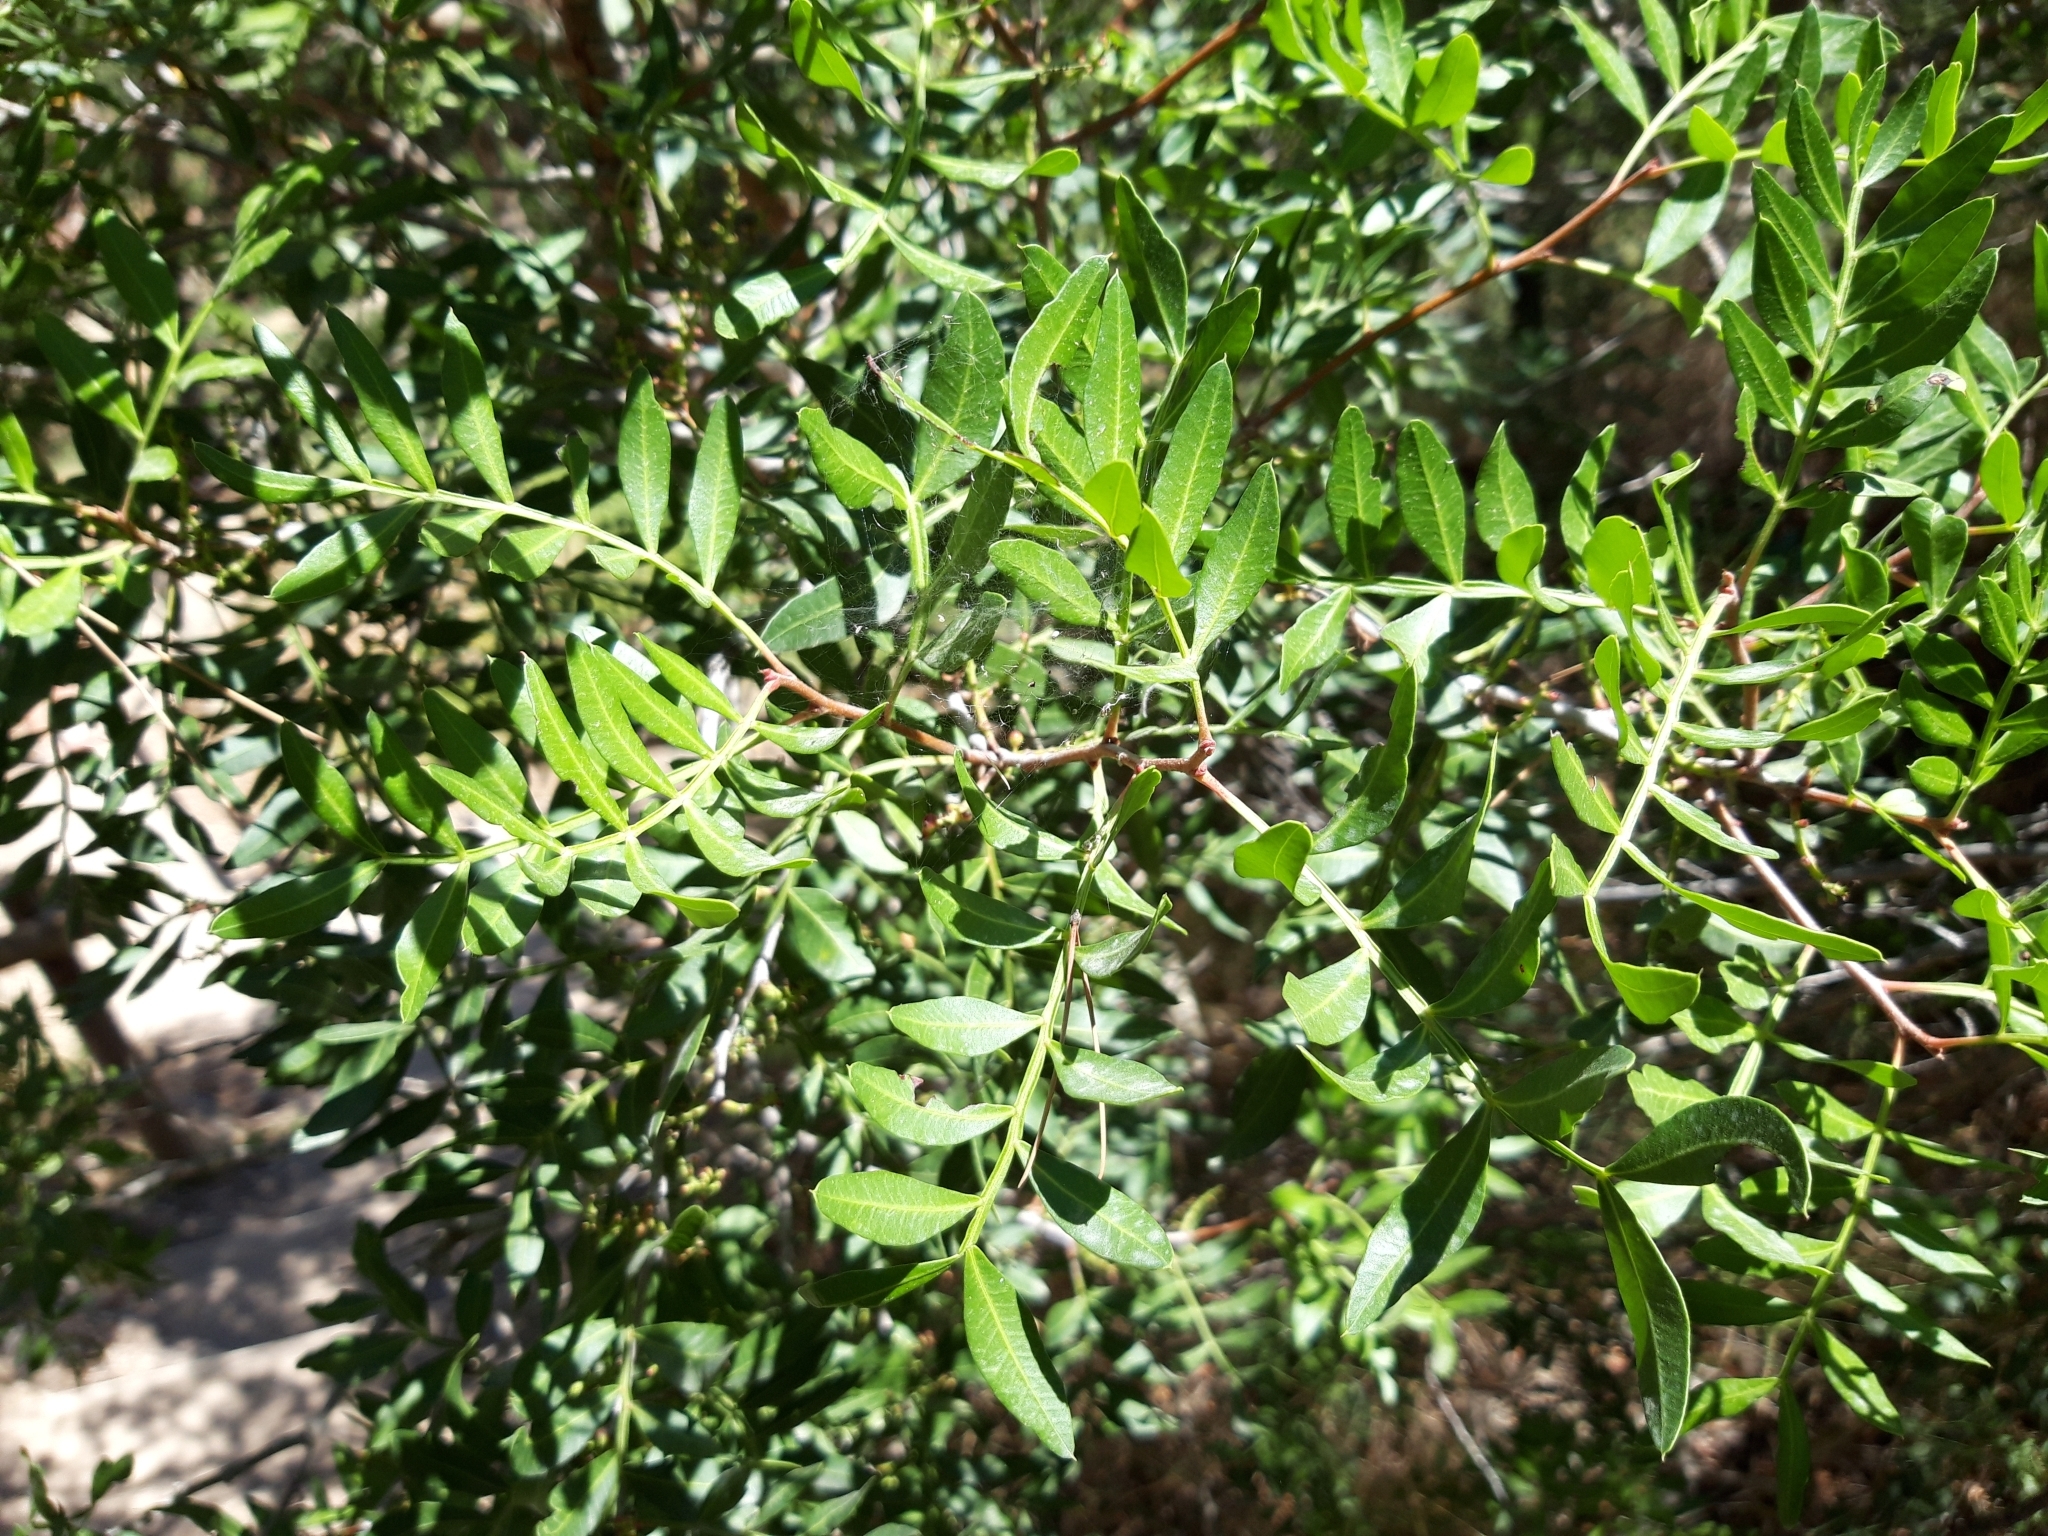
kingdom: Plantae
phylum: Tracheophyta
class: Magnoliopsida
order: Sapindales
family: Anacardiaceae
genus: Pistacia
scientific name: Pistacia lentiscus
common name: Lentisk
